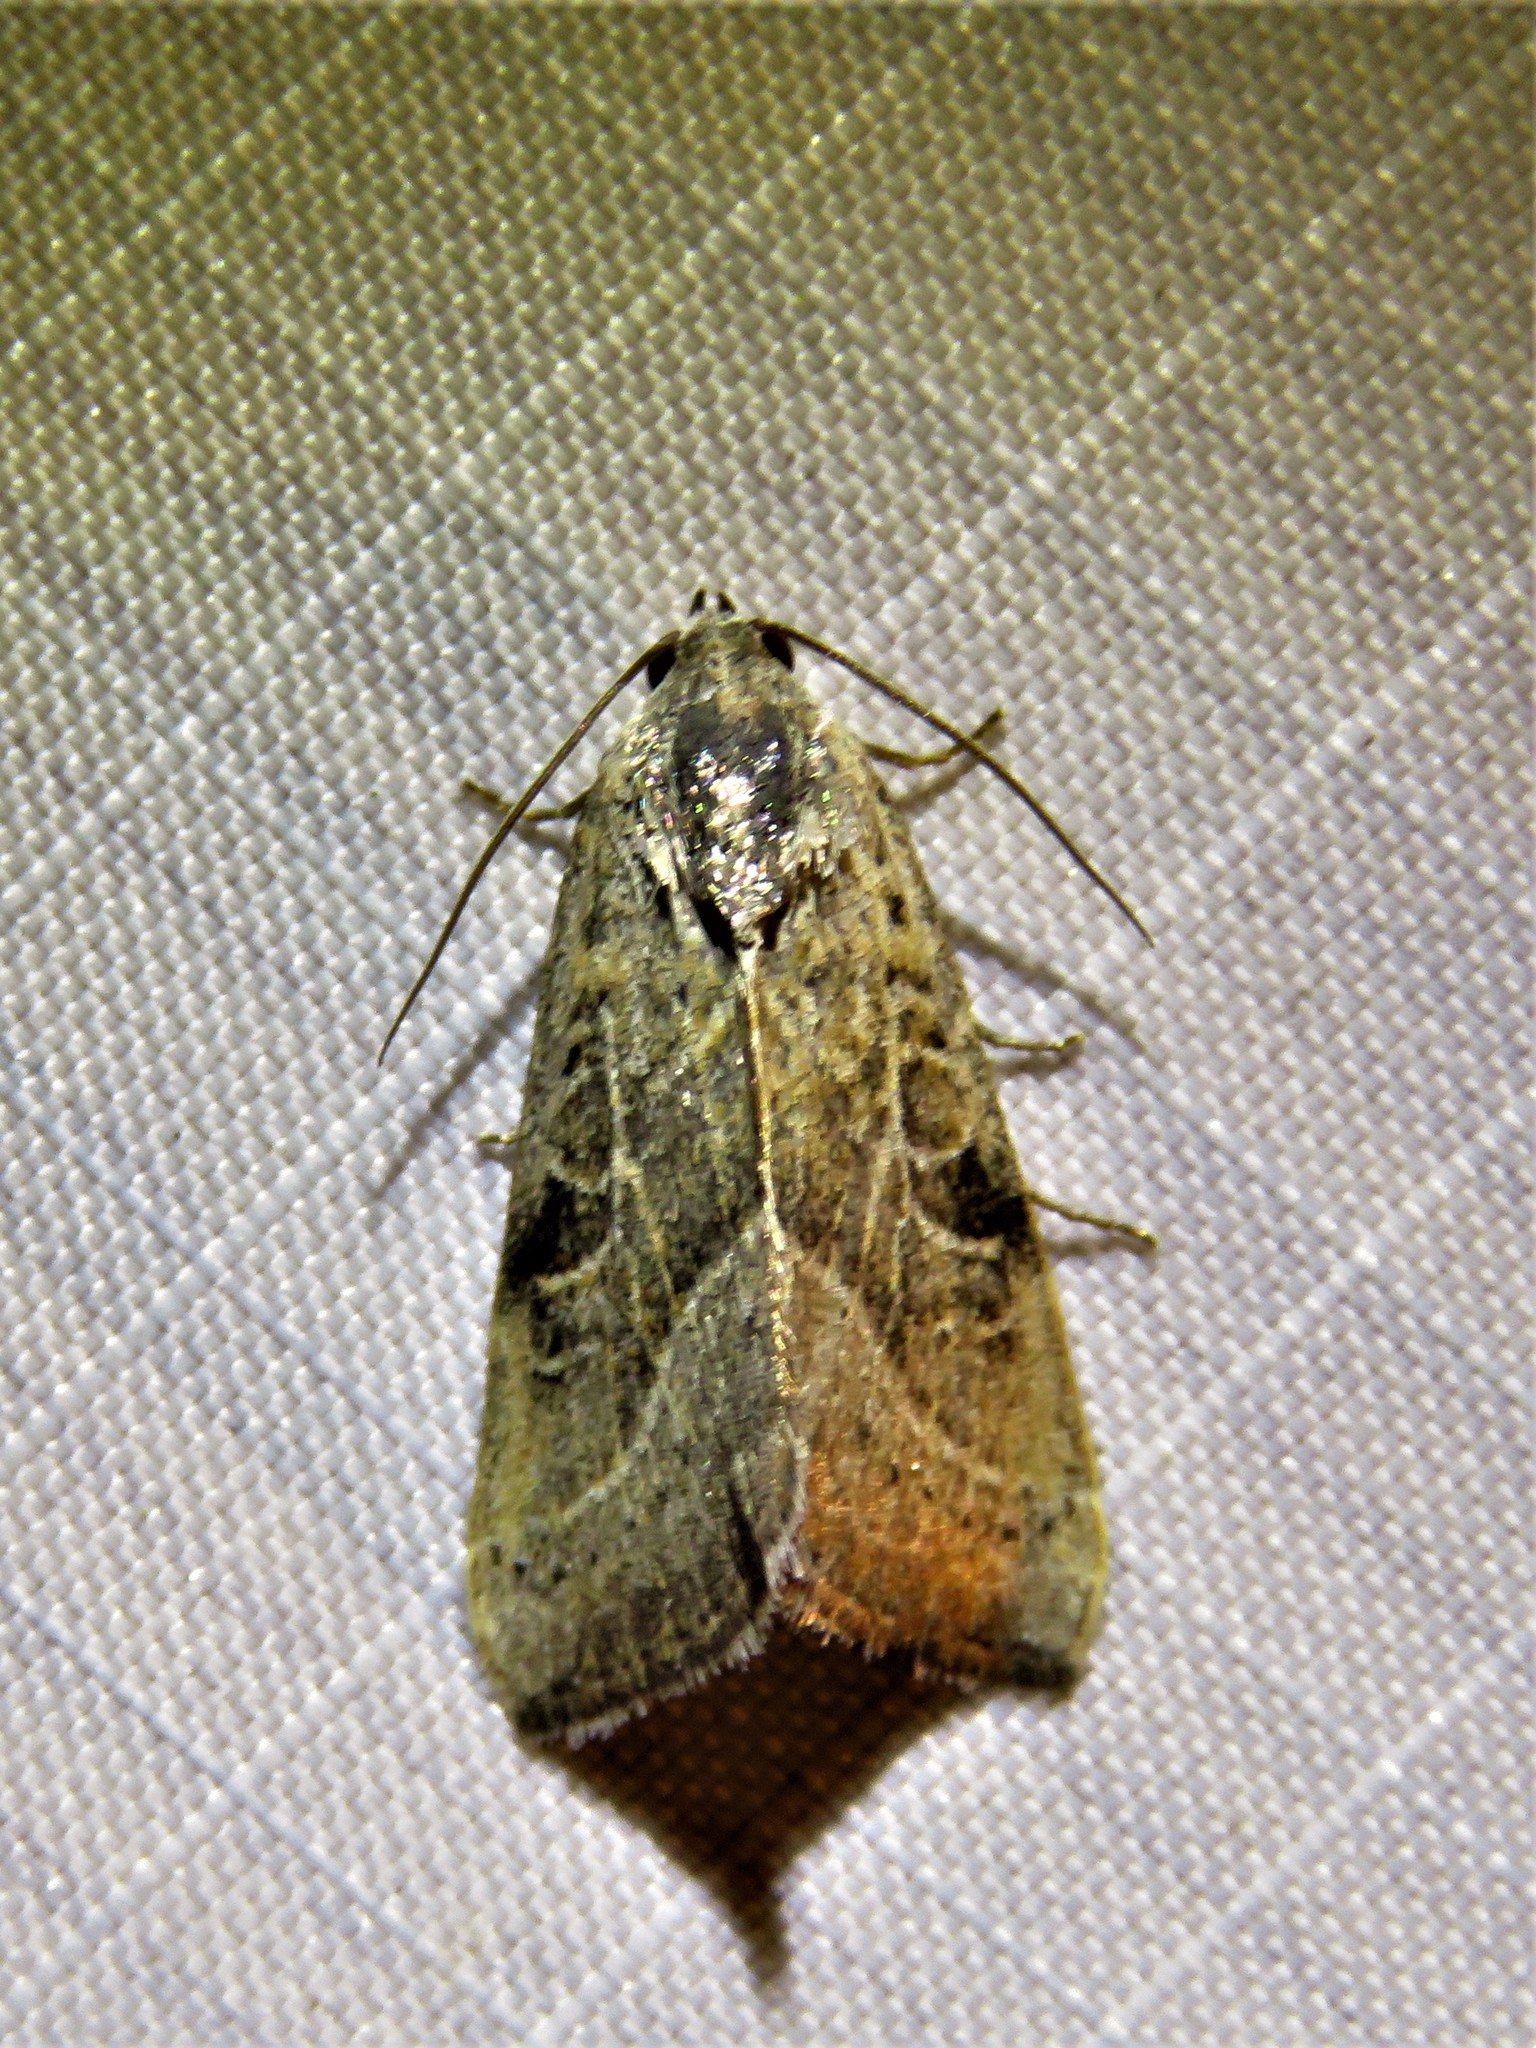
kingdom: Animalia
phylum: Arthropoda
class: Insecta
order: Lepidoptera
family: Noctuidae
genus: Galgula
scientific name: Galgula partita
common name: Wedgeling
